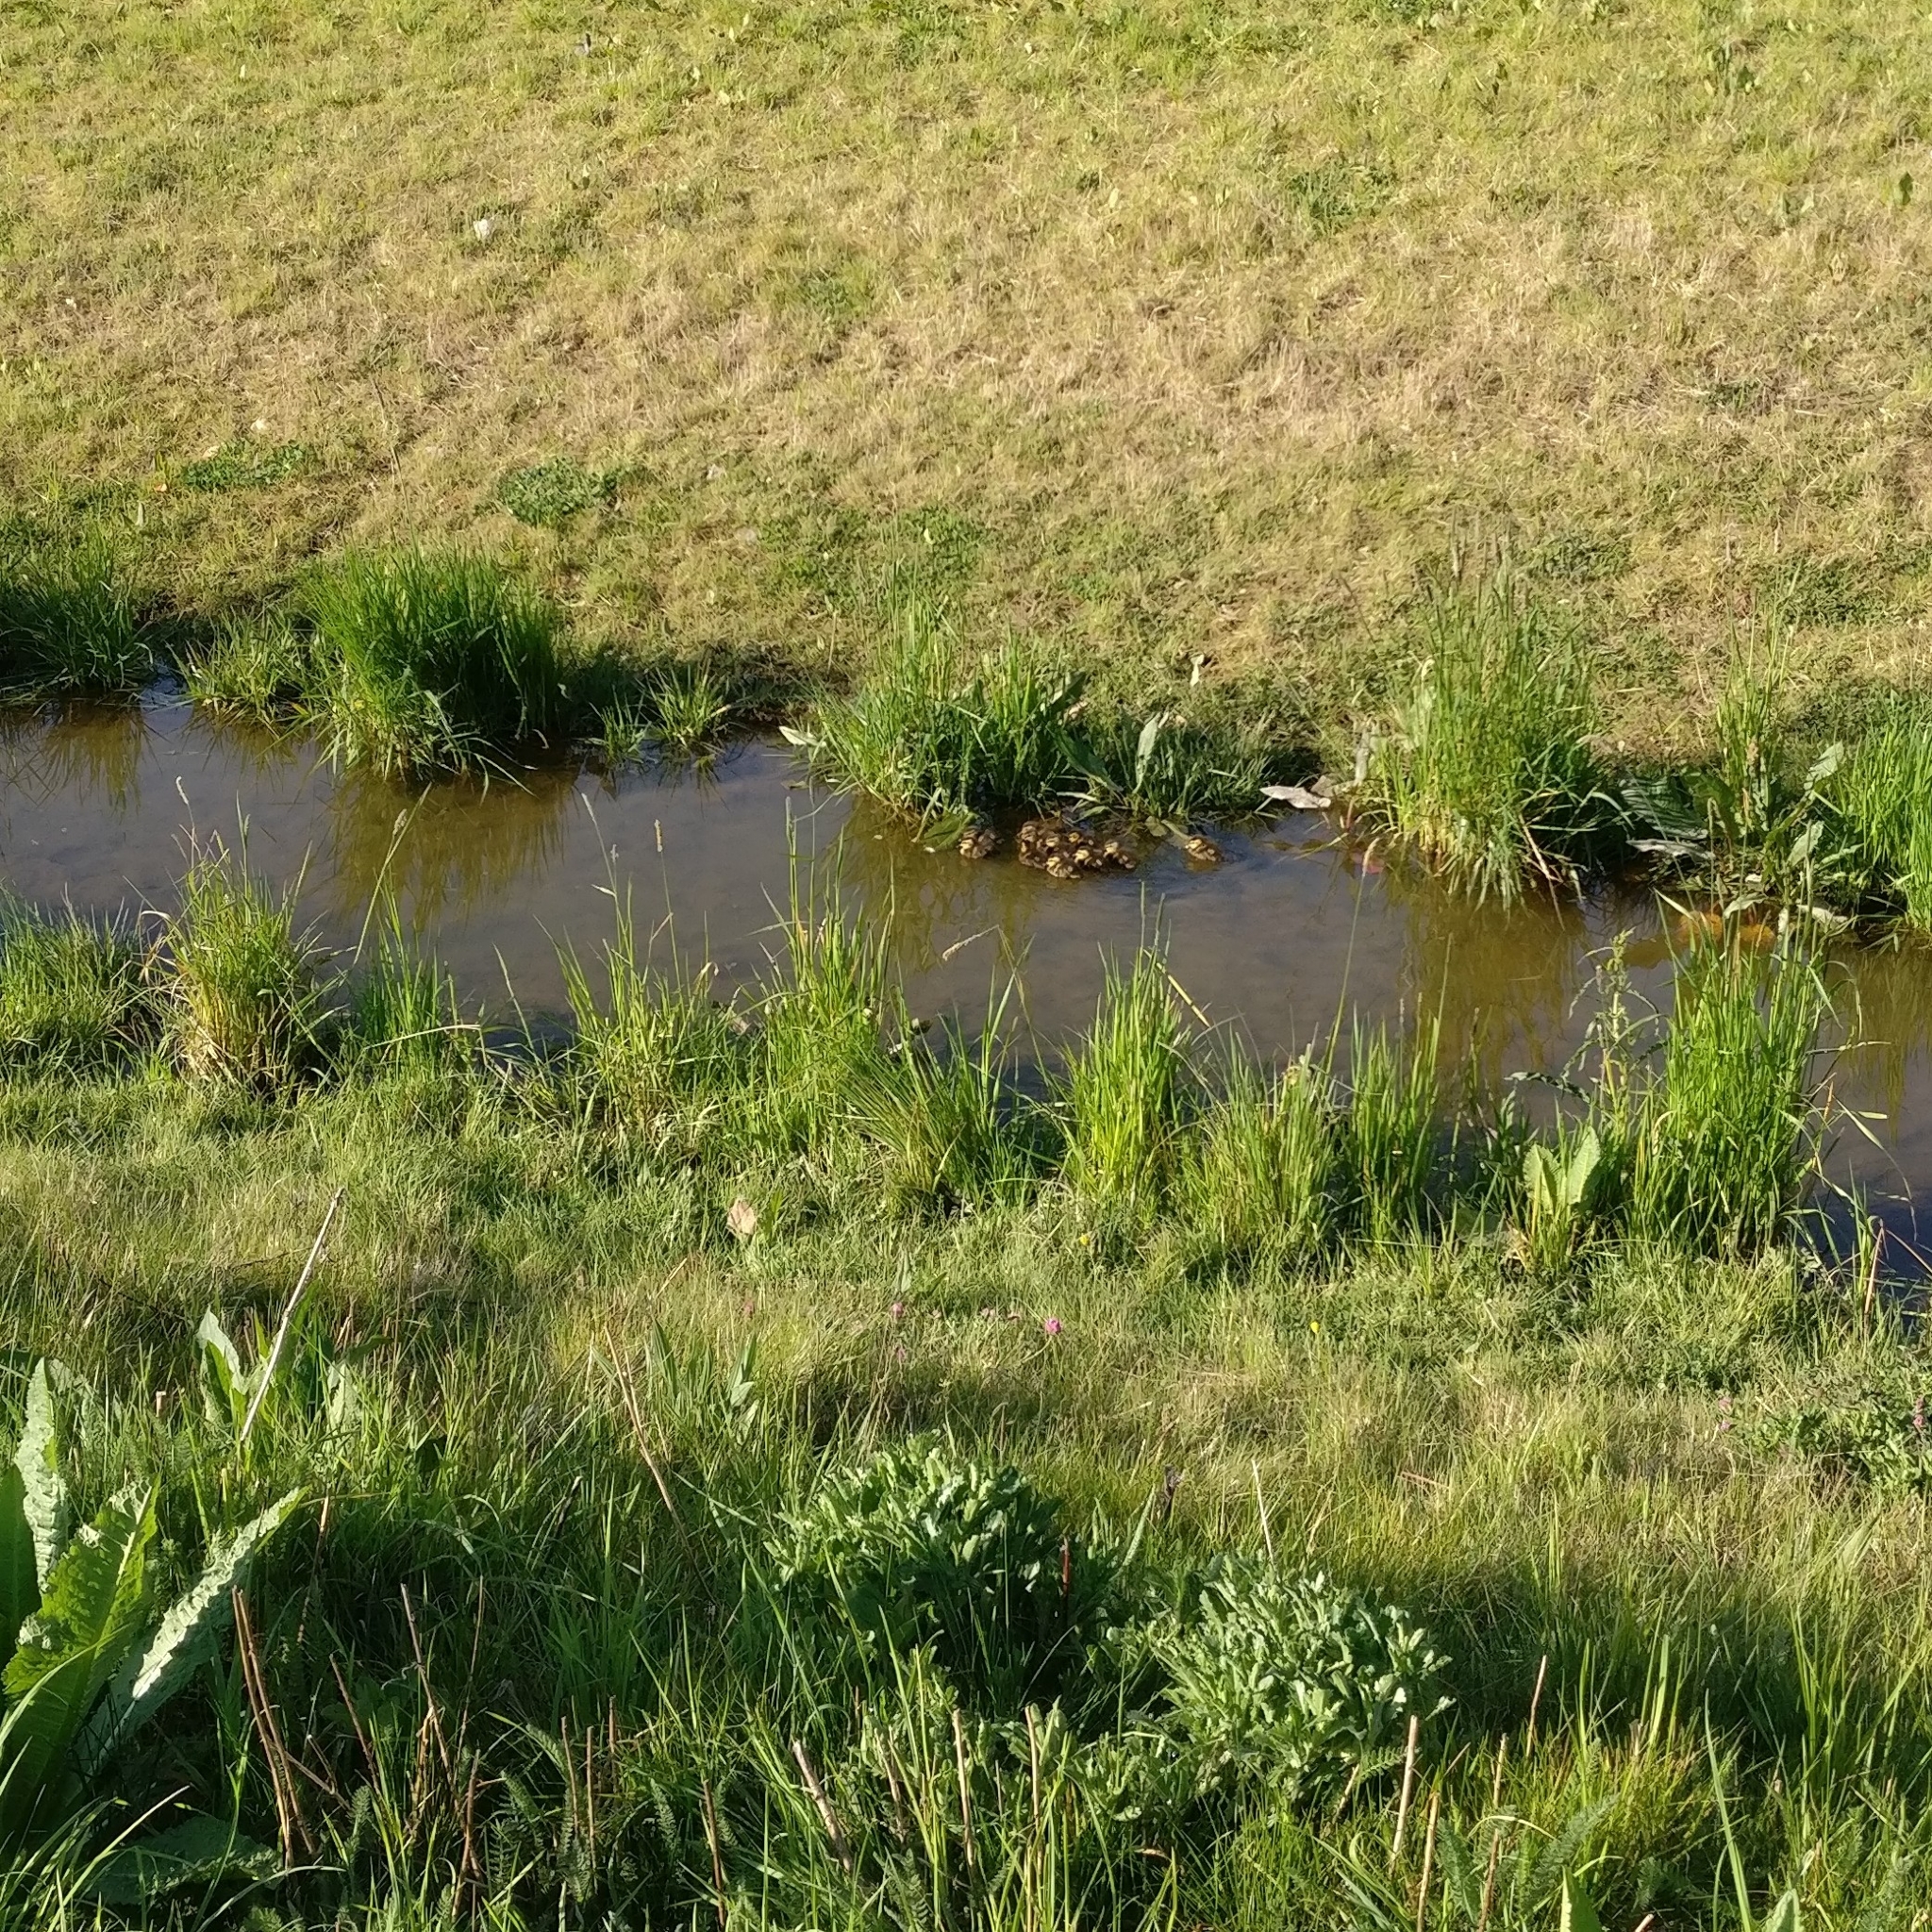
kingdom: Animalia
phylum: Chordata
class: Aves
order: Anseriformes
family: Anatidae
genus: Anas
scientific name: Anas platyrhynchos
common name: Mallard
